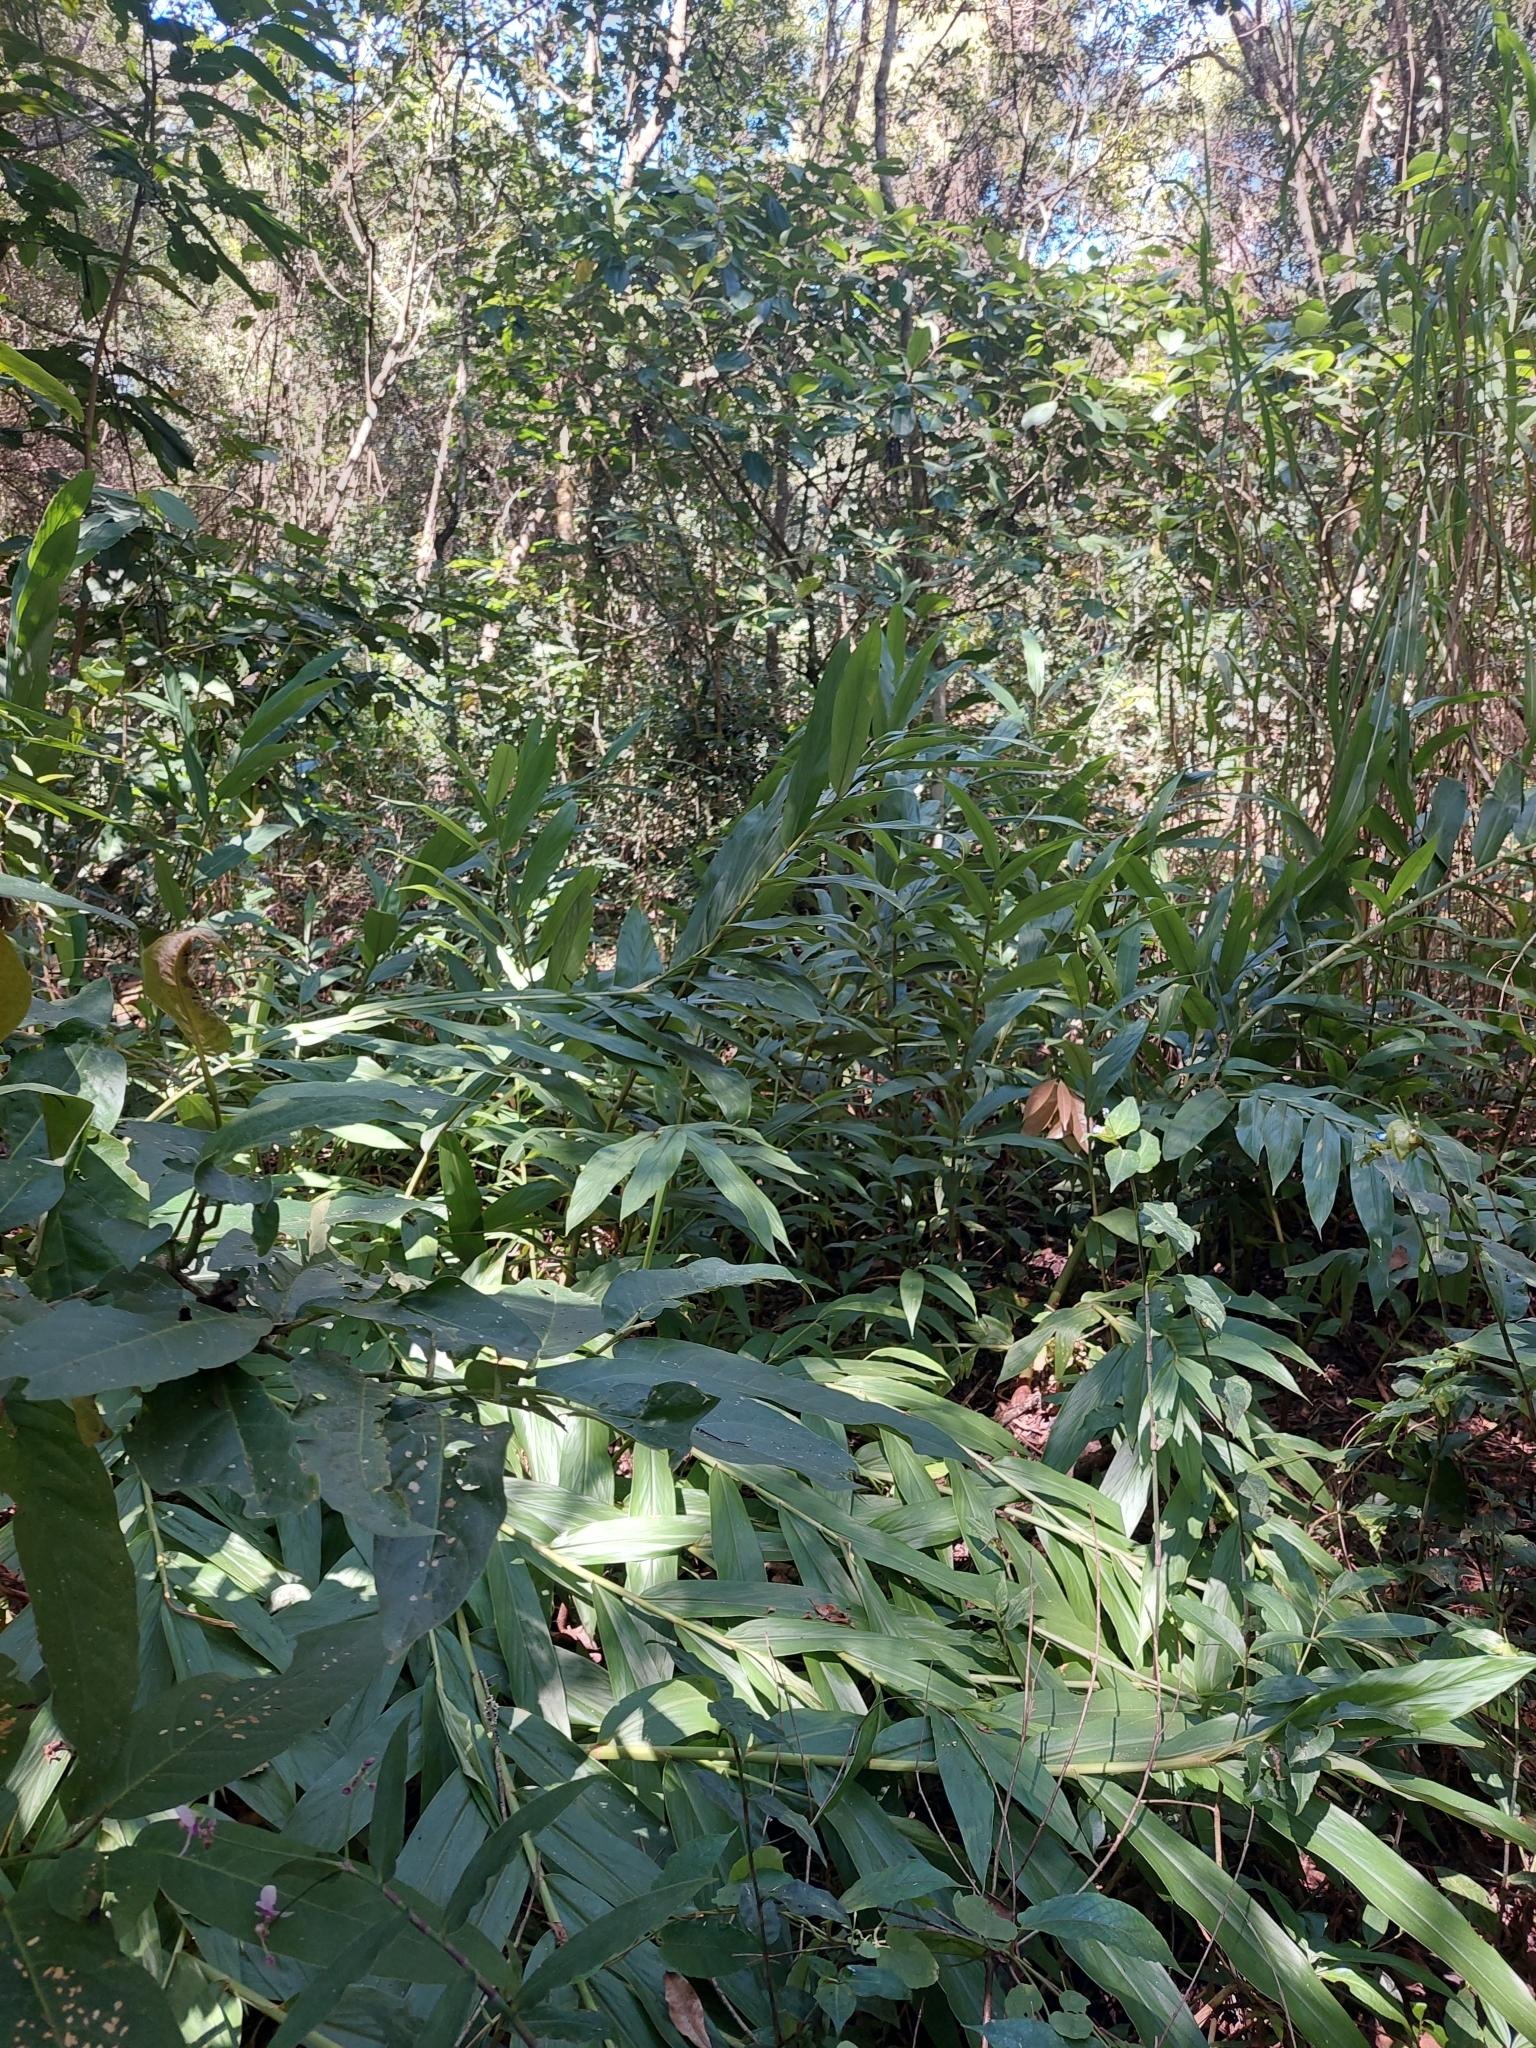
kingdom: Plantae
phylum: Tracheophyta
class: Liliopsida
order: Zingiberales
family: Zingiberaceae
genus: Hedychium
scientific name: Hedychium coronarium
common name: White garland-lily
